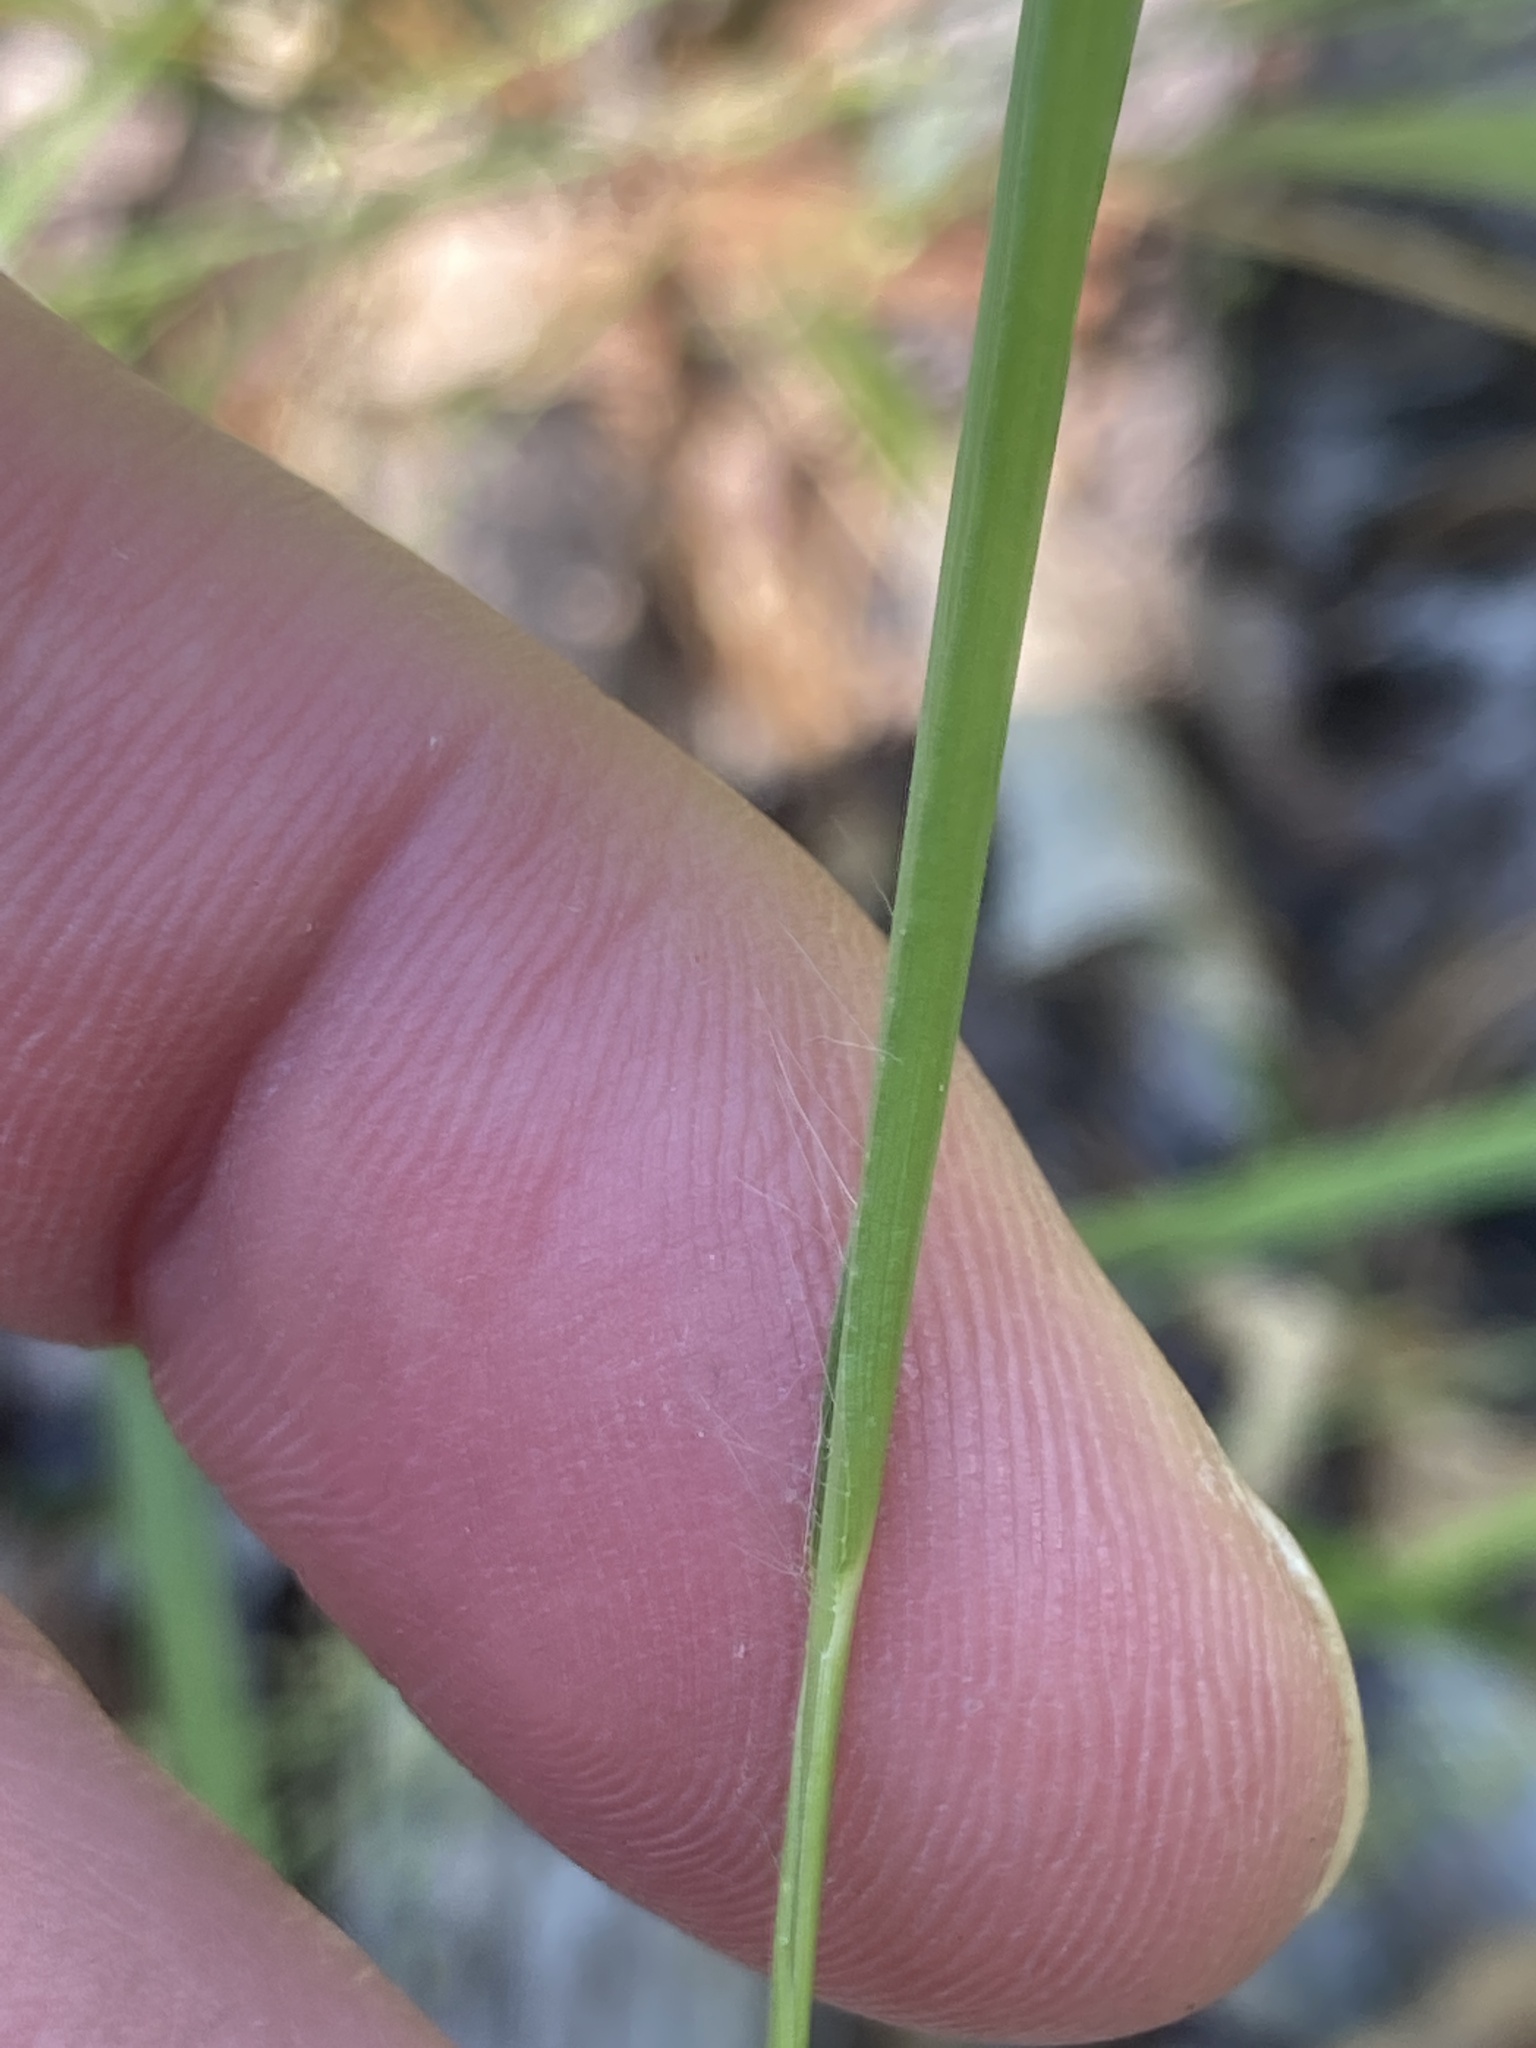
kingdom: Plantae
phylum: Tracheophyta
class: Liliopsida
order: Poales
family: Poaceae
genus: Dichanthelium
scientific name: Dichanthelium linearifolium
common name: Linear-leaved panicgrass
